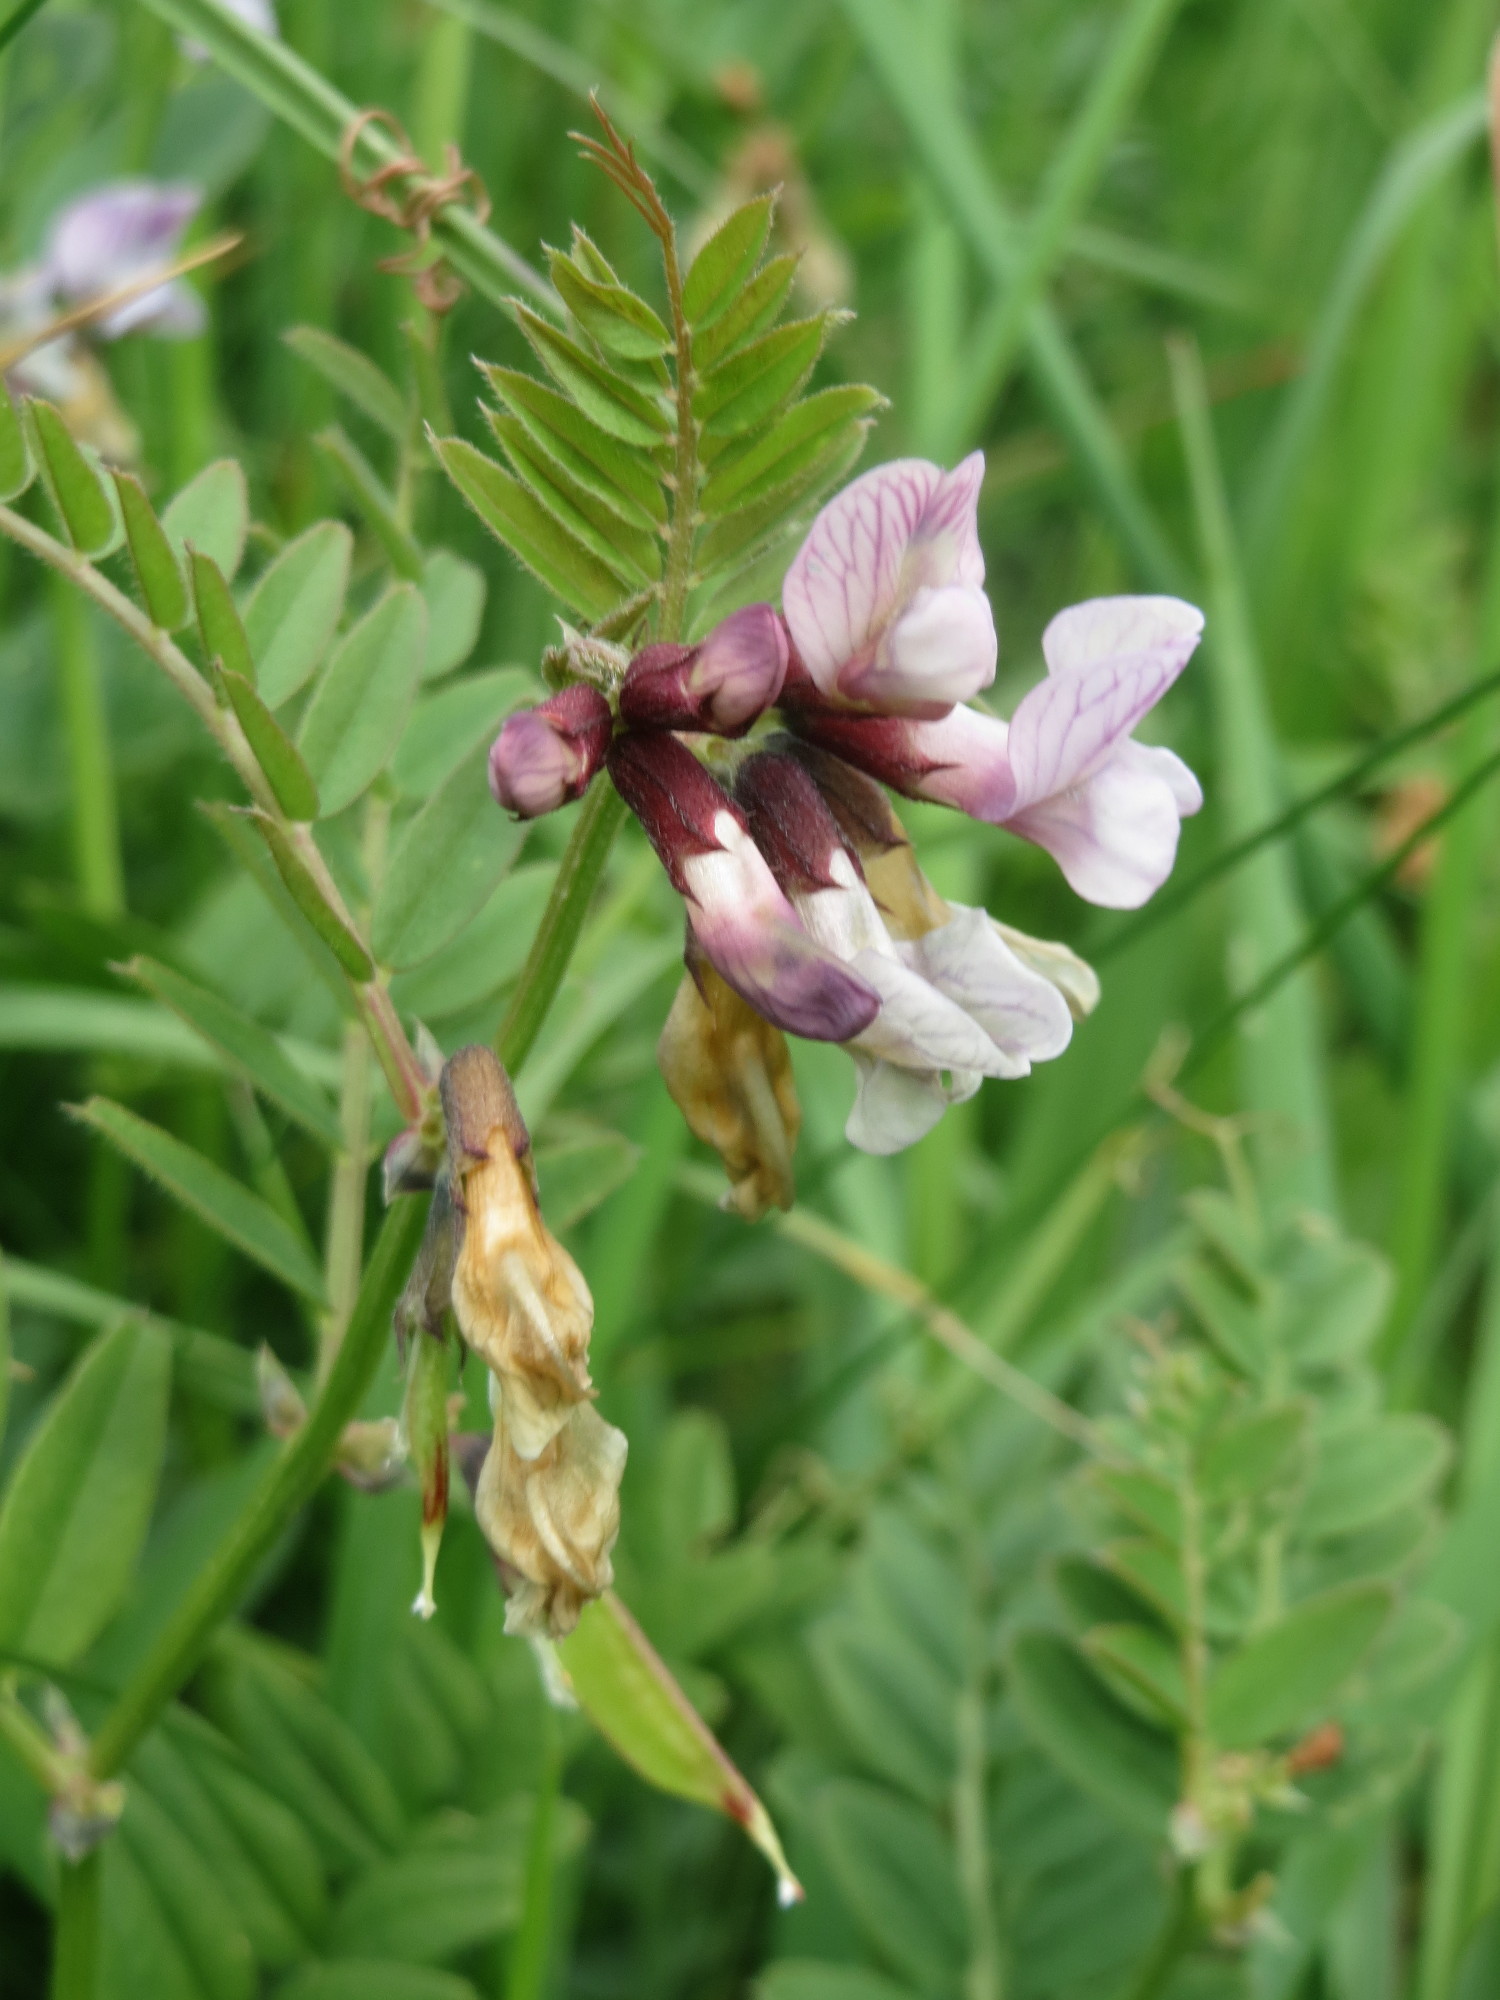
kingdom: Plantae
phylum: Tracheophyta
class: Magnoliopsida
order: Fabales
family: Fabaceae
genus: Vicia
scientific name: Vicia sepium
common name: Bush vetch
